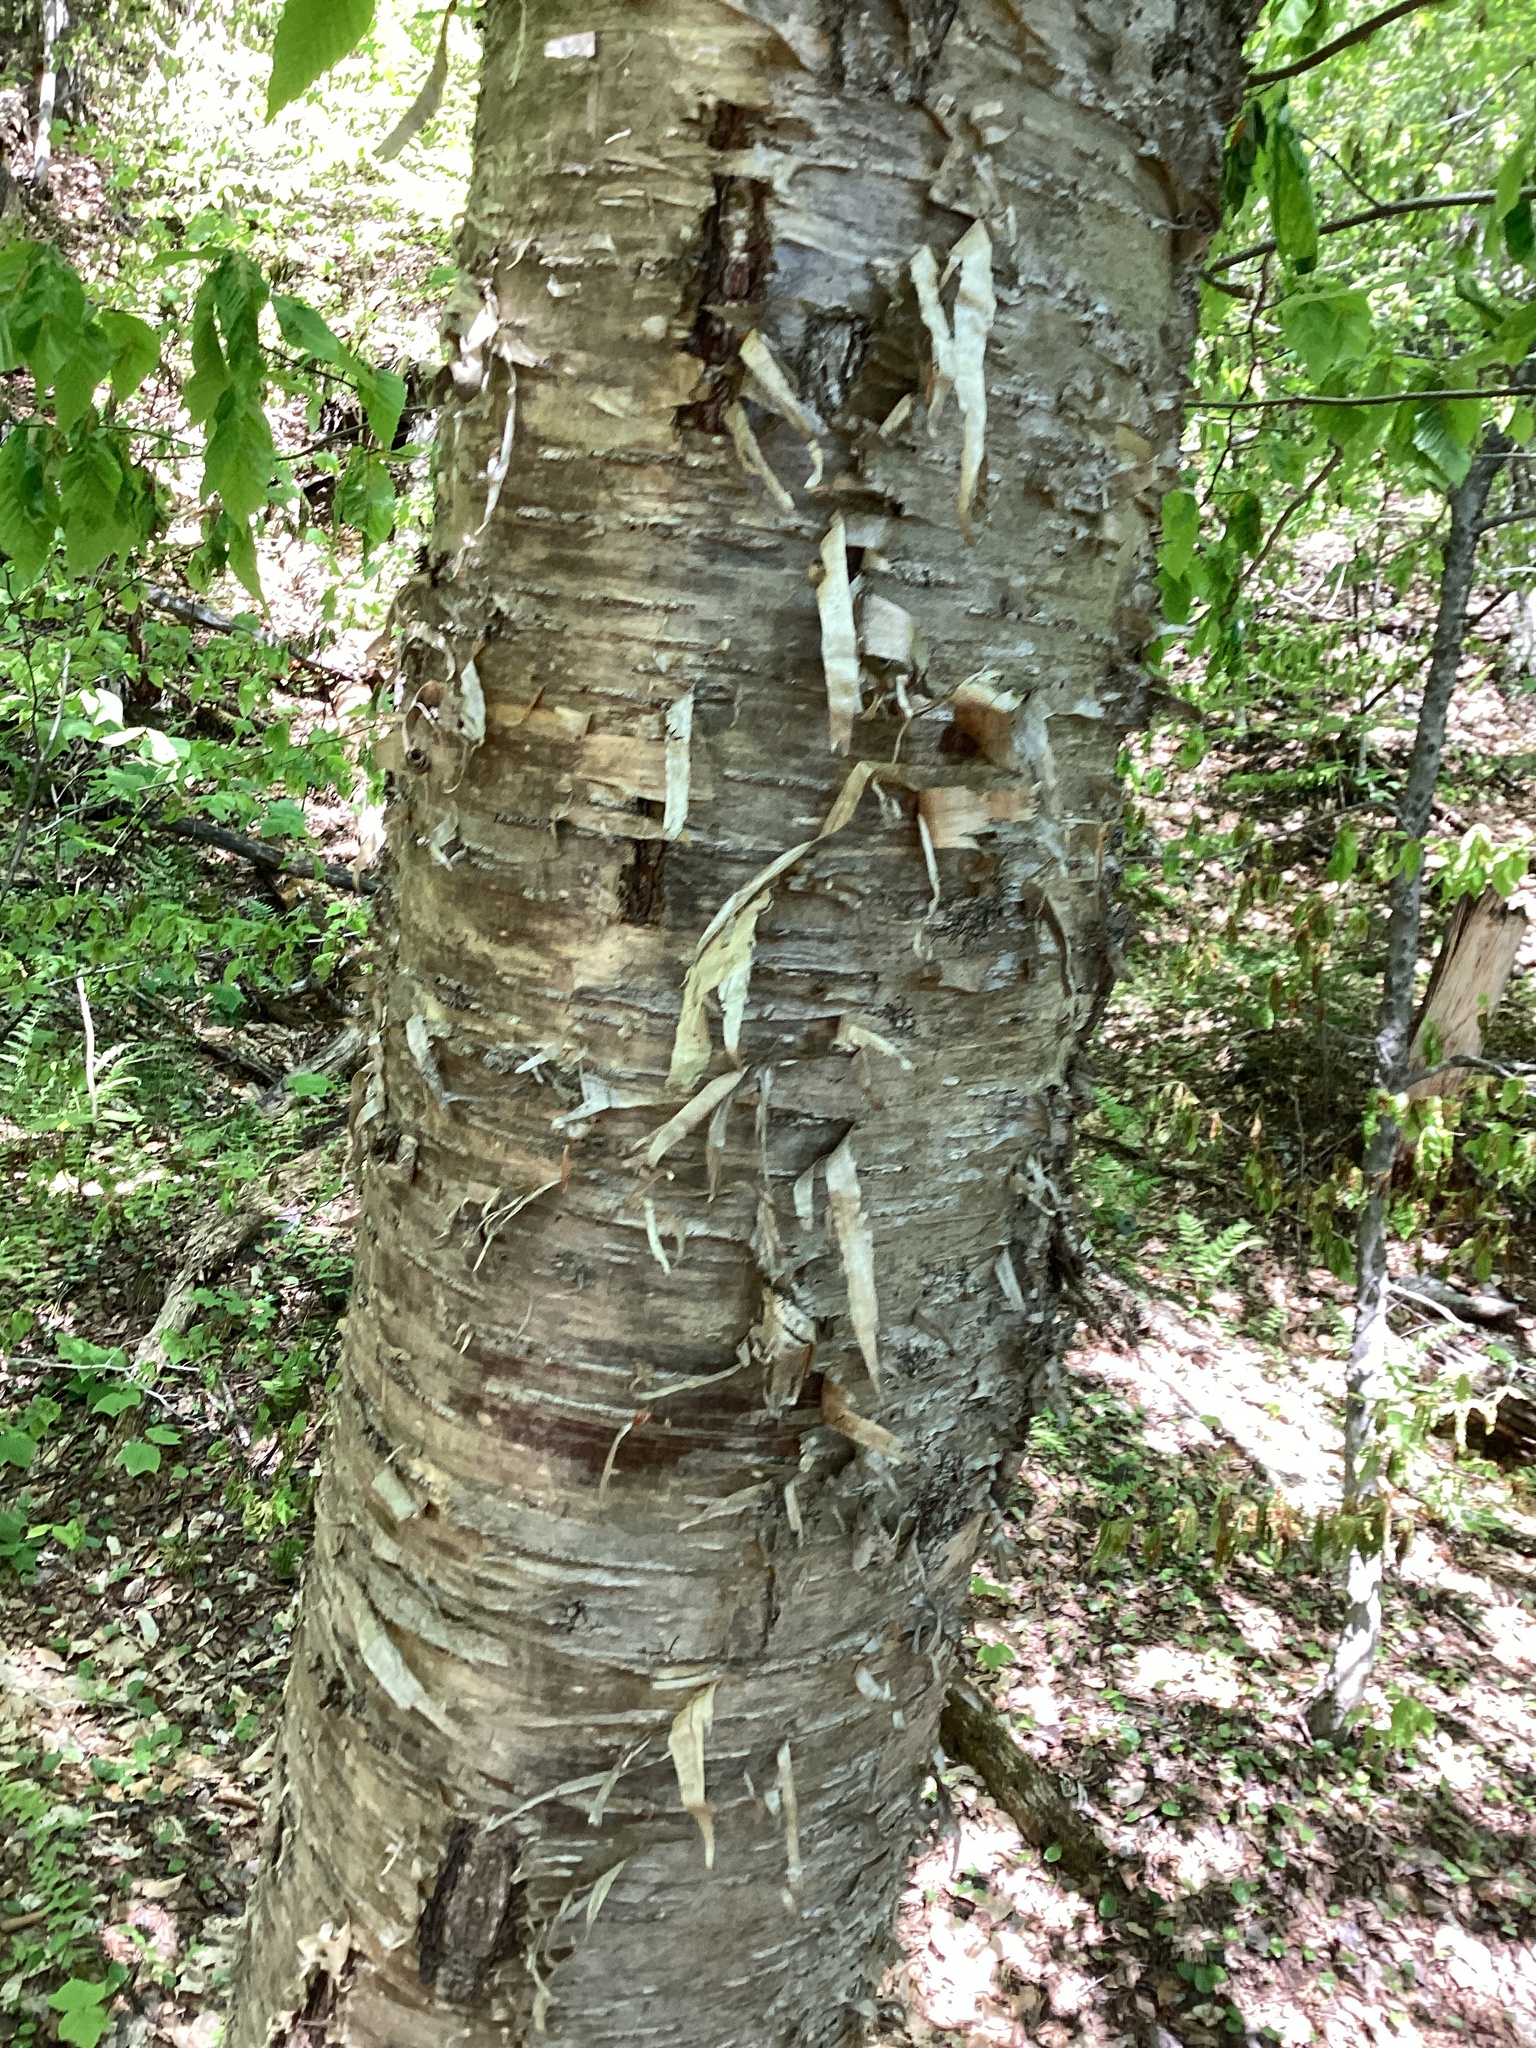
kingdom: Plantae
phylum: Tracheophyta
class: Magnoliopsida
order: Fagales
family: Betulaceae
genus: Betula
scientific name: Betula alleghaniensis
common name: Yellow birch
